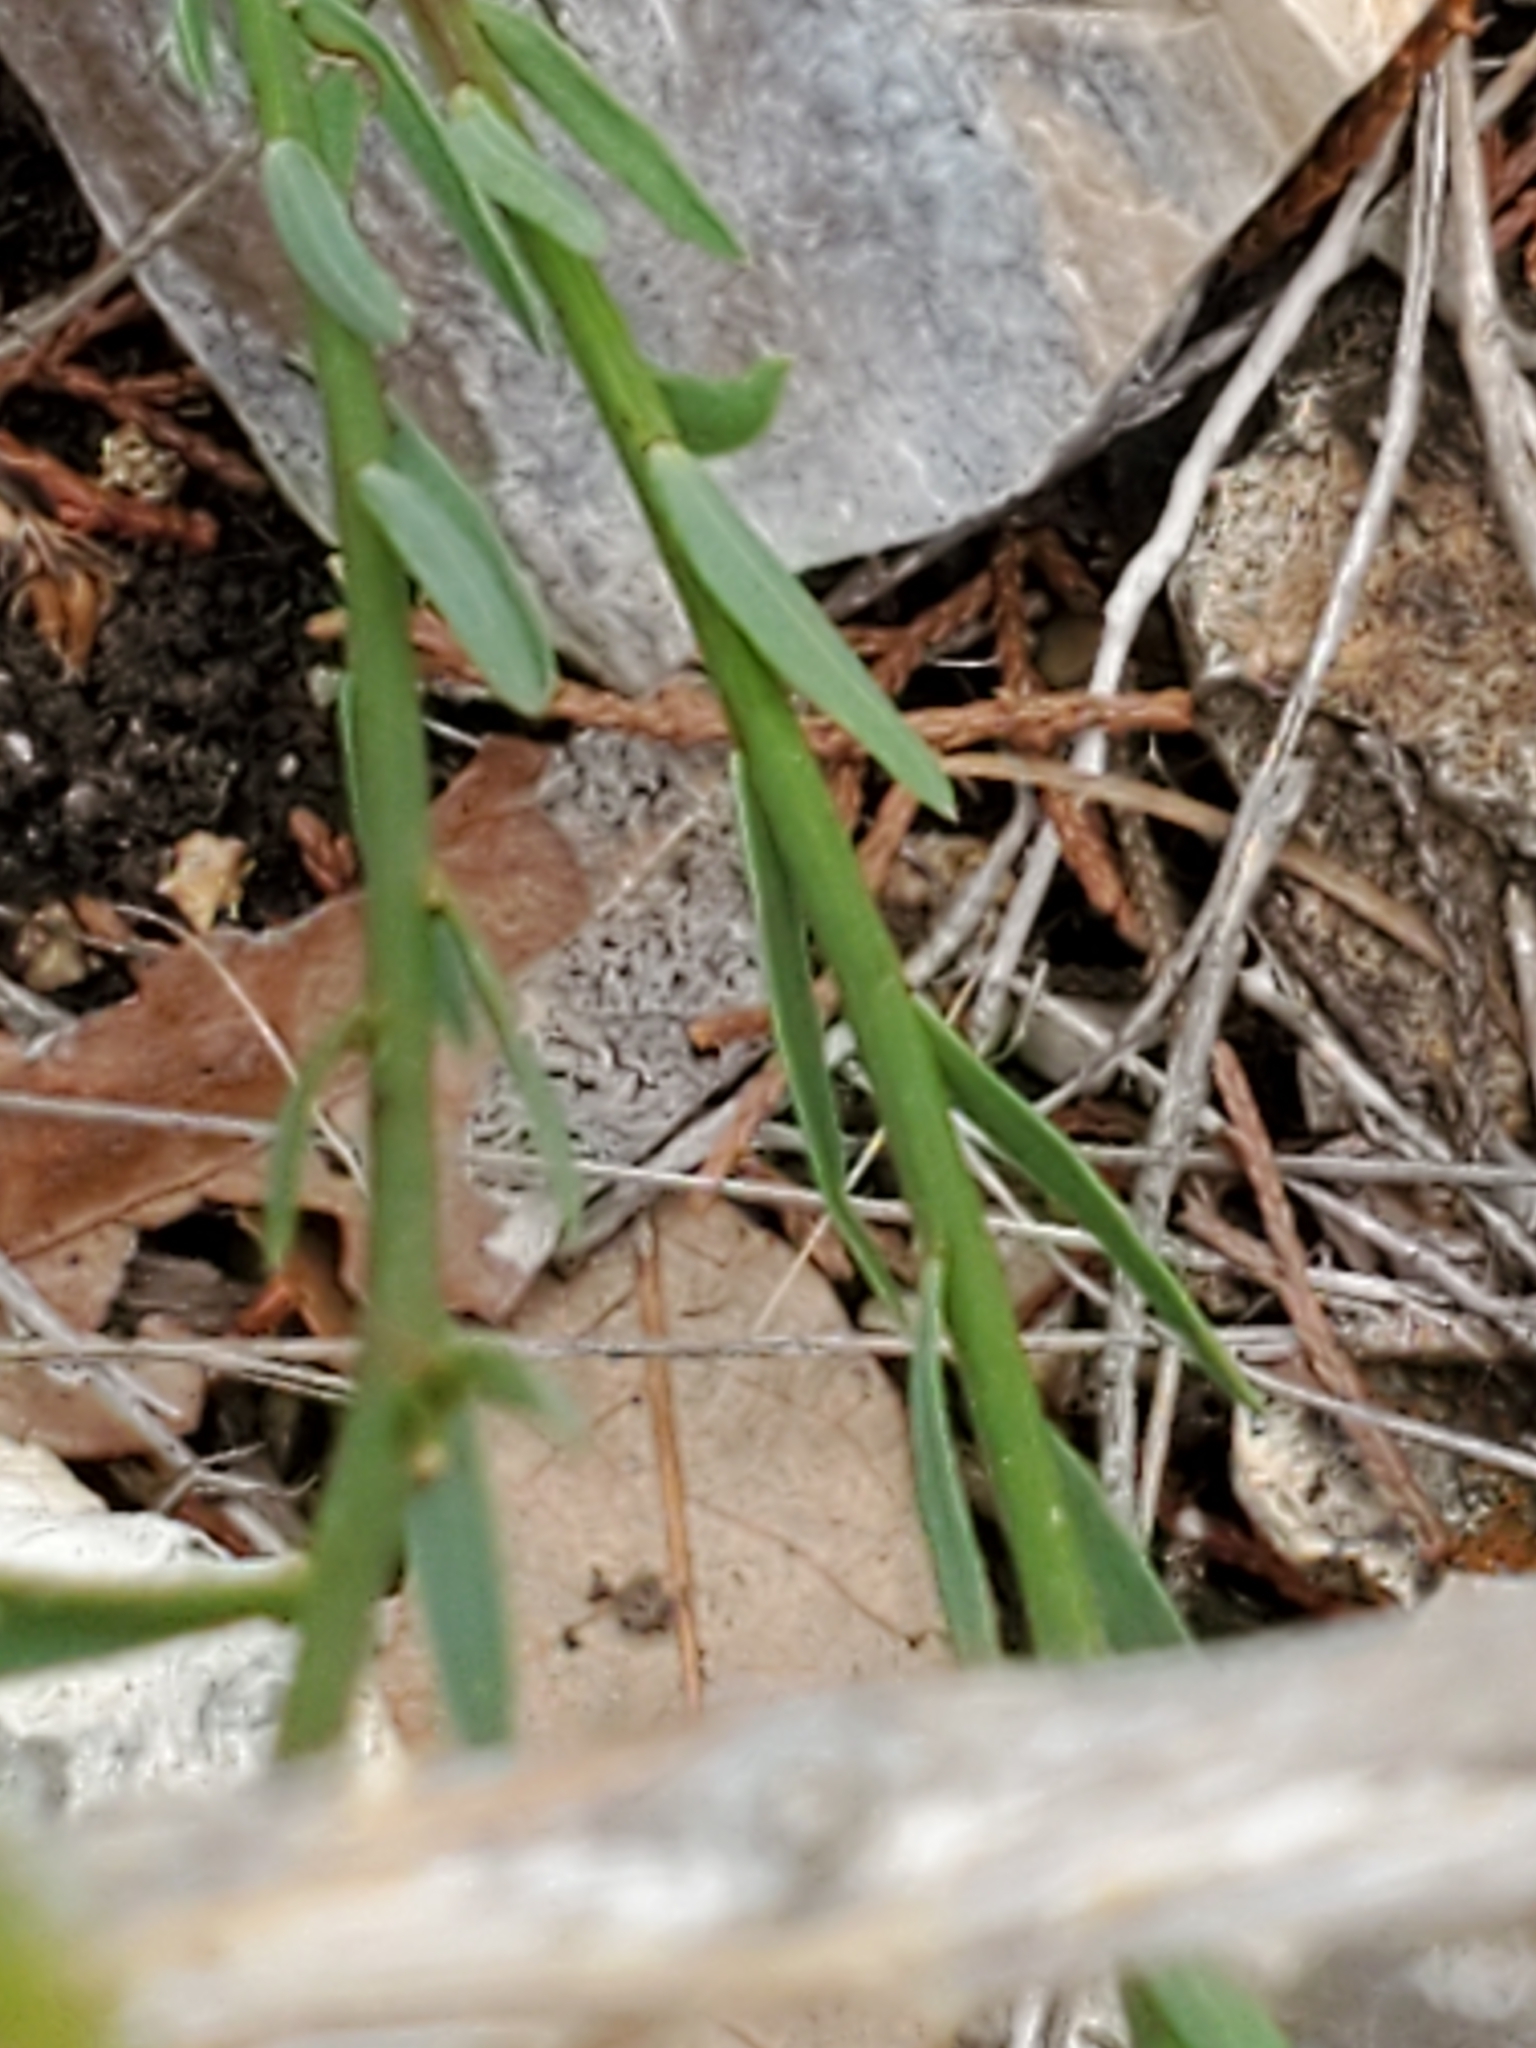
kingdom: Plantae
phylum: Tracheophyta
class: Magnoliopsida
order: Malpighiales
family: Linaceae
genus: Linum
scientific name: Linum rupestre
